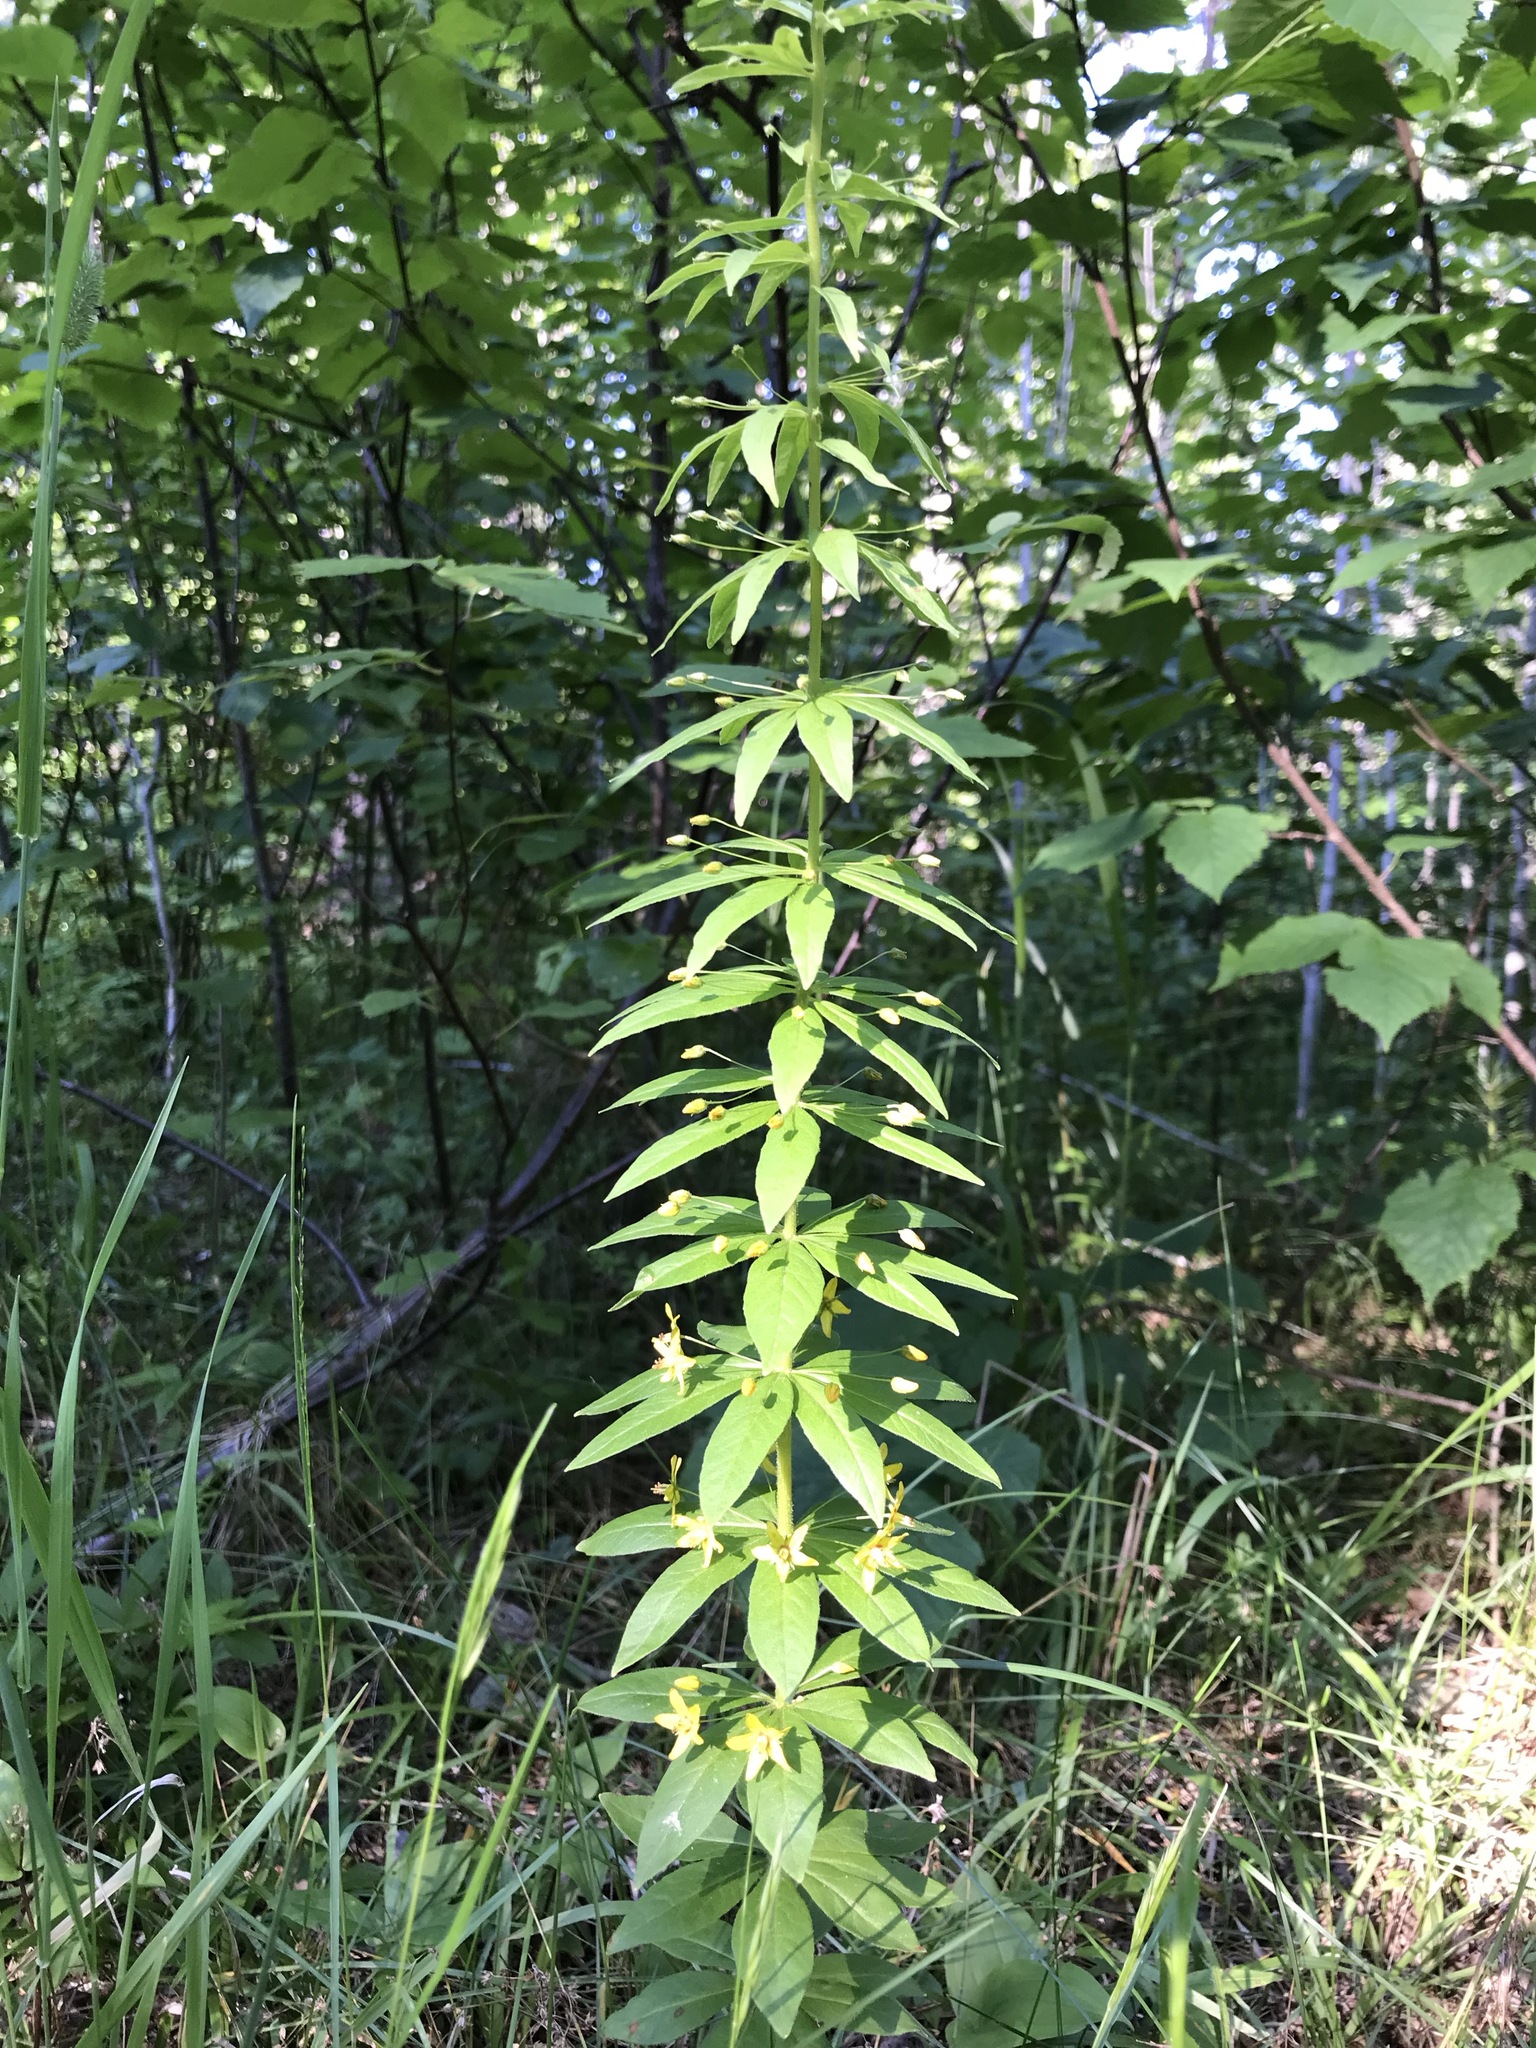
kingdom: Plantae
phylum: Tracheophyta
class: Magnoliopsida
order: Ericales
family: Primulaceae
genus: Lysimachia
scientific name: Lysimachia quadrifolia
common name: Whorled loosestrife
